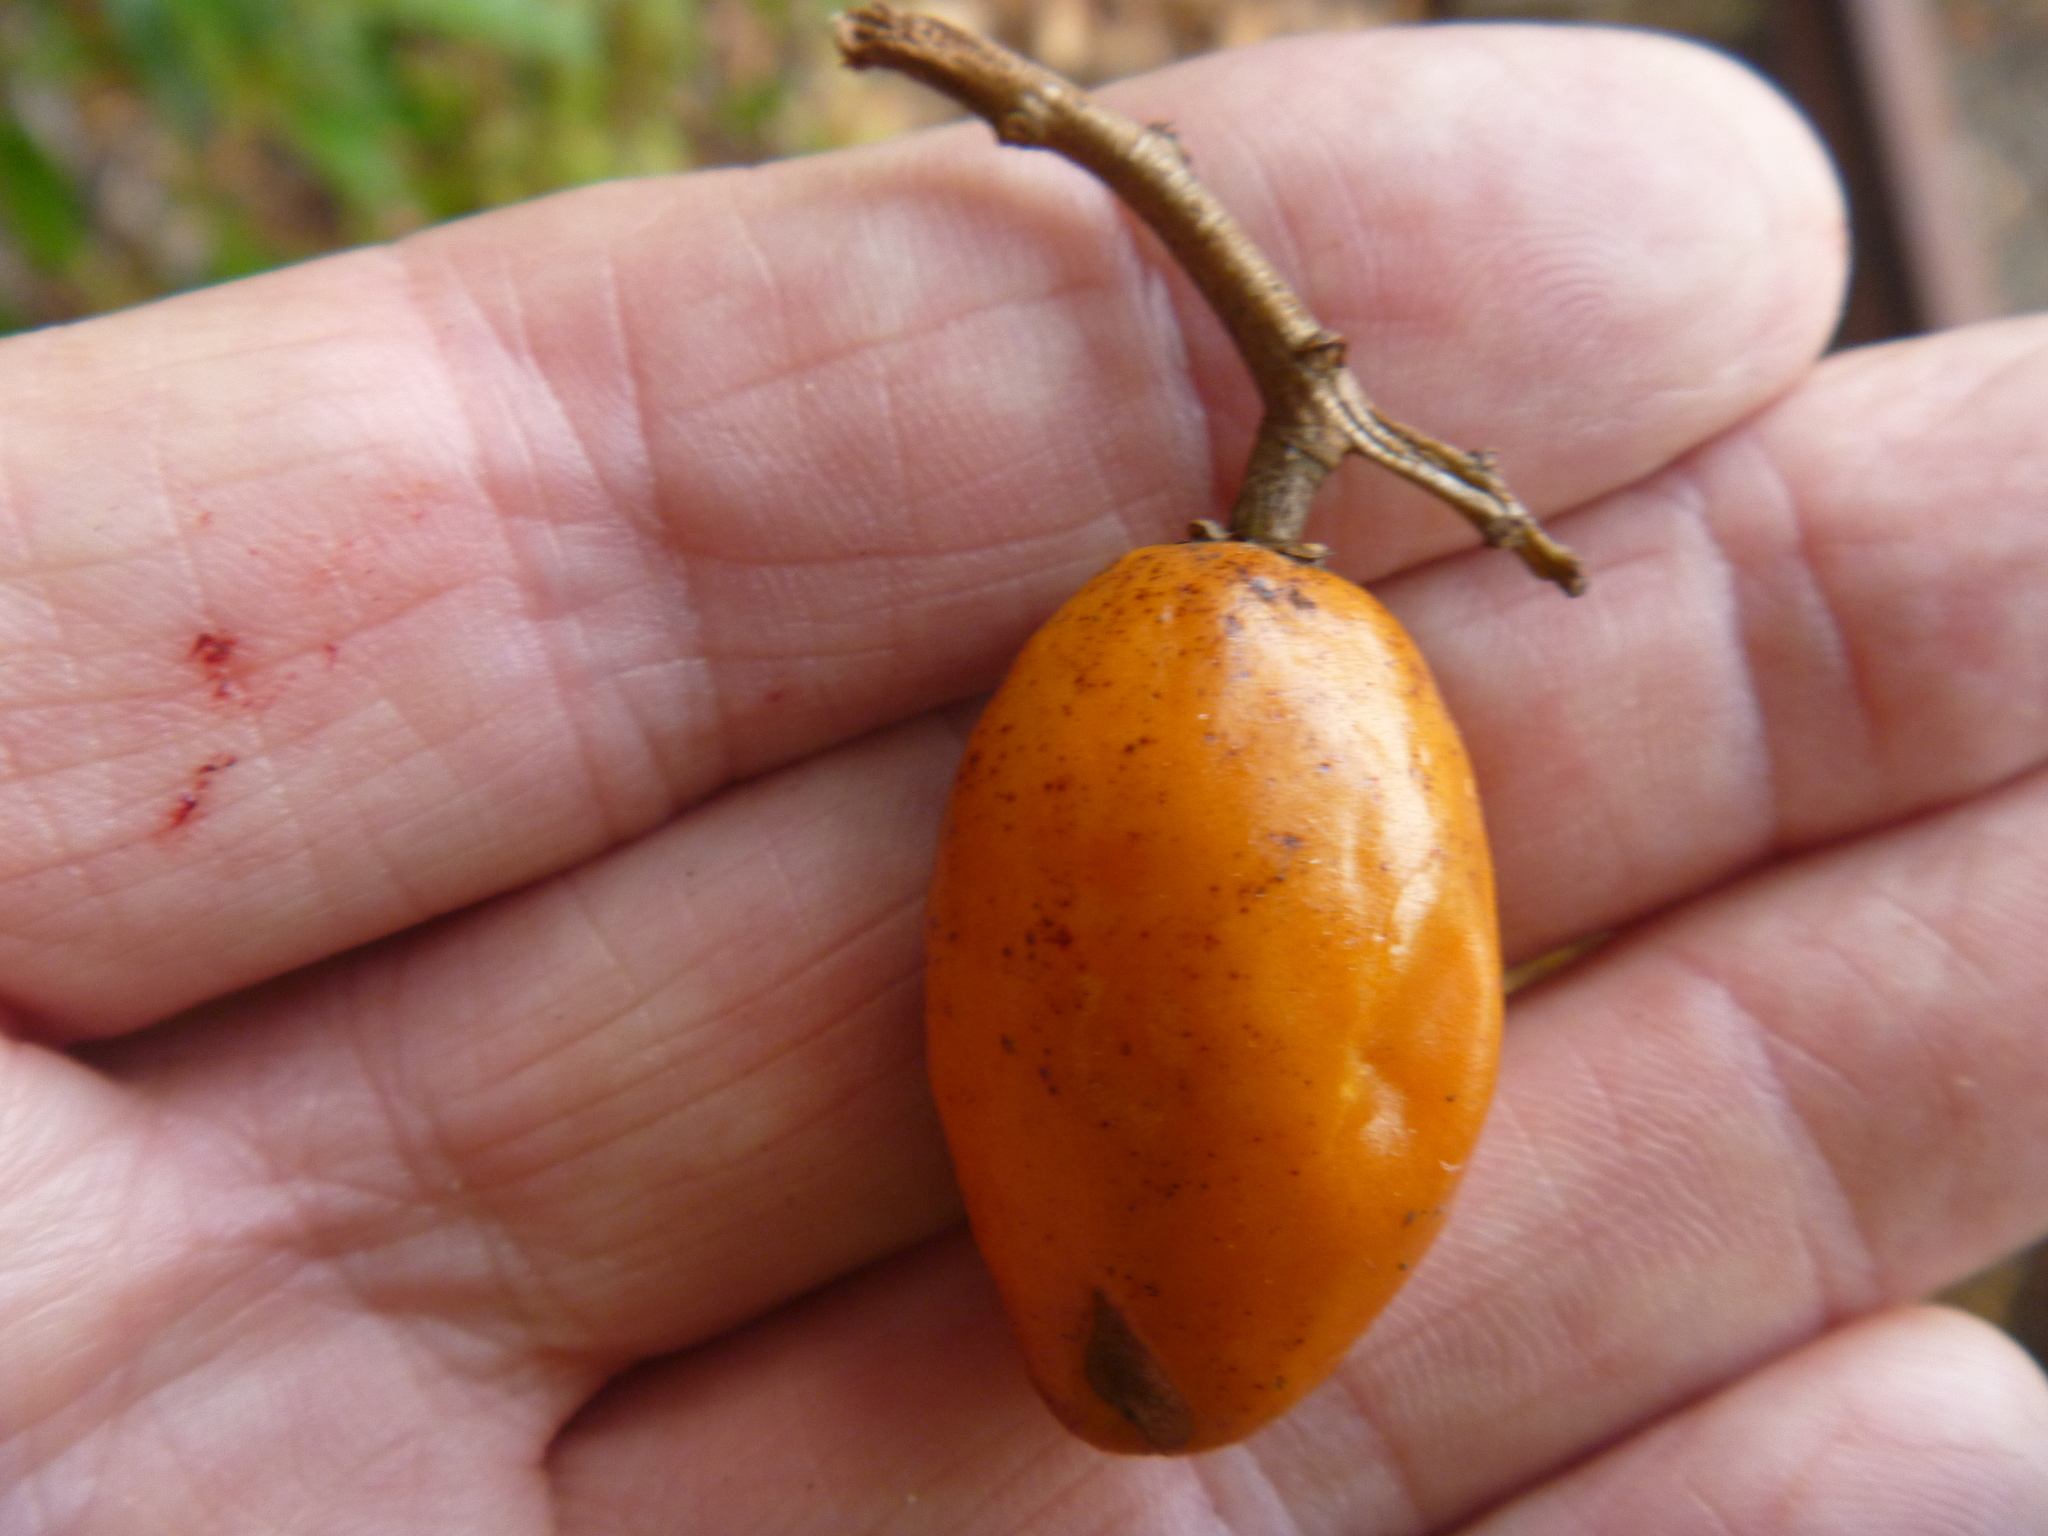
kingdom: Plantae
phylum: Tracheophyta
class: Magnoliopsida
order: Cucurbitales
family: Corynocarpaceae
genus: Corynocarpus
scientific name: Corynocarpus laevigatus
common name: New zealand laurel
